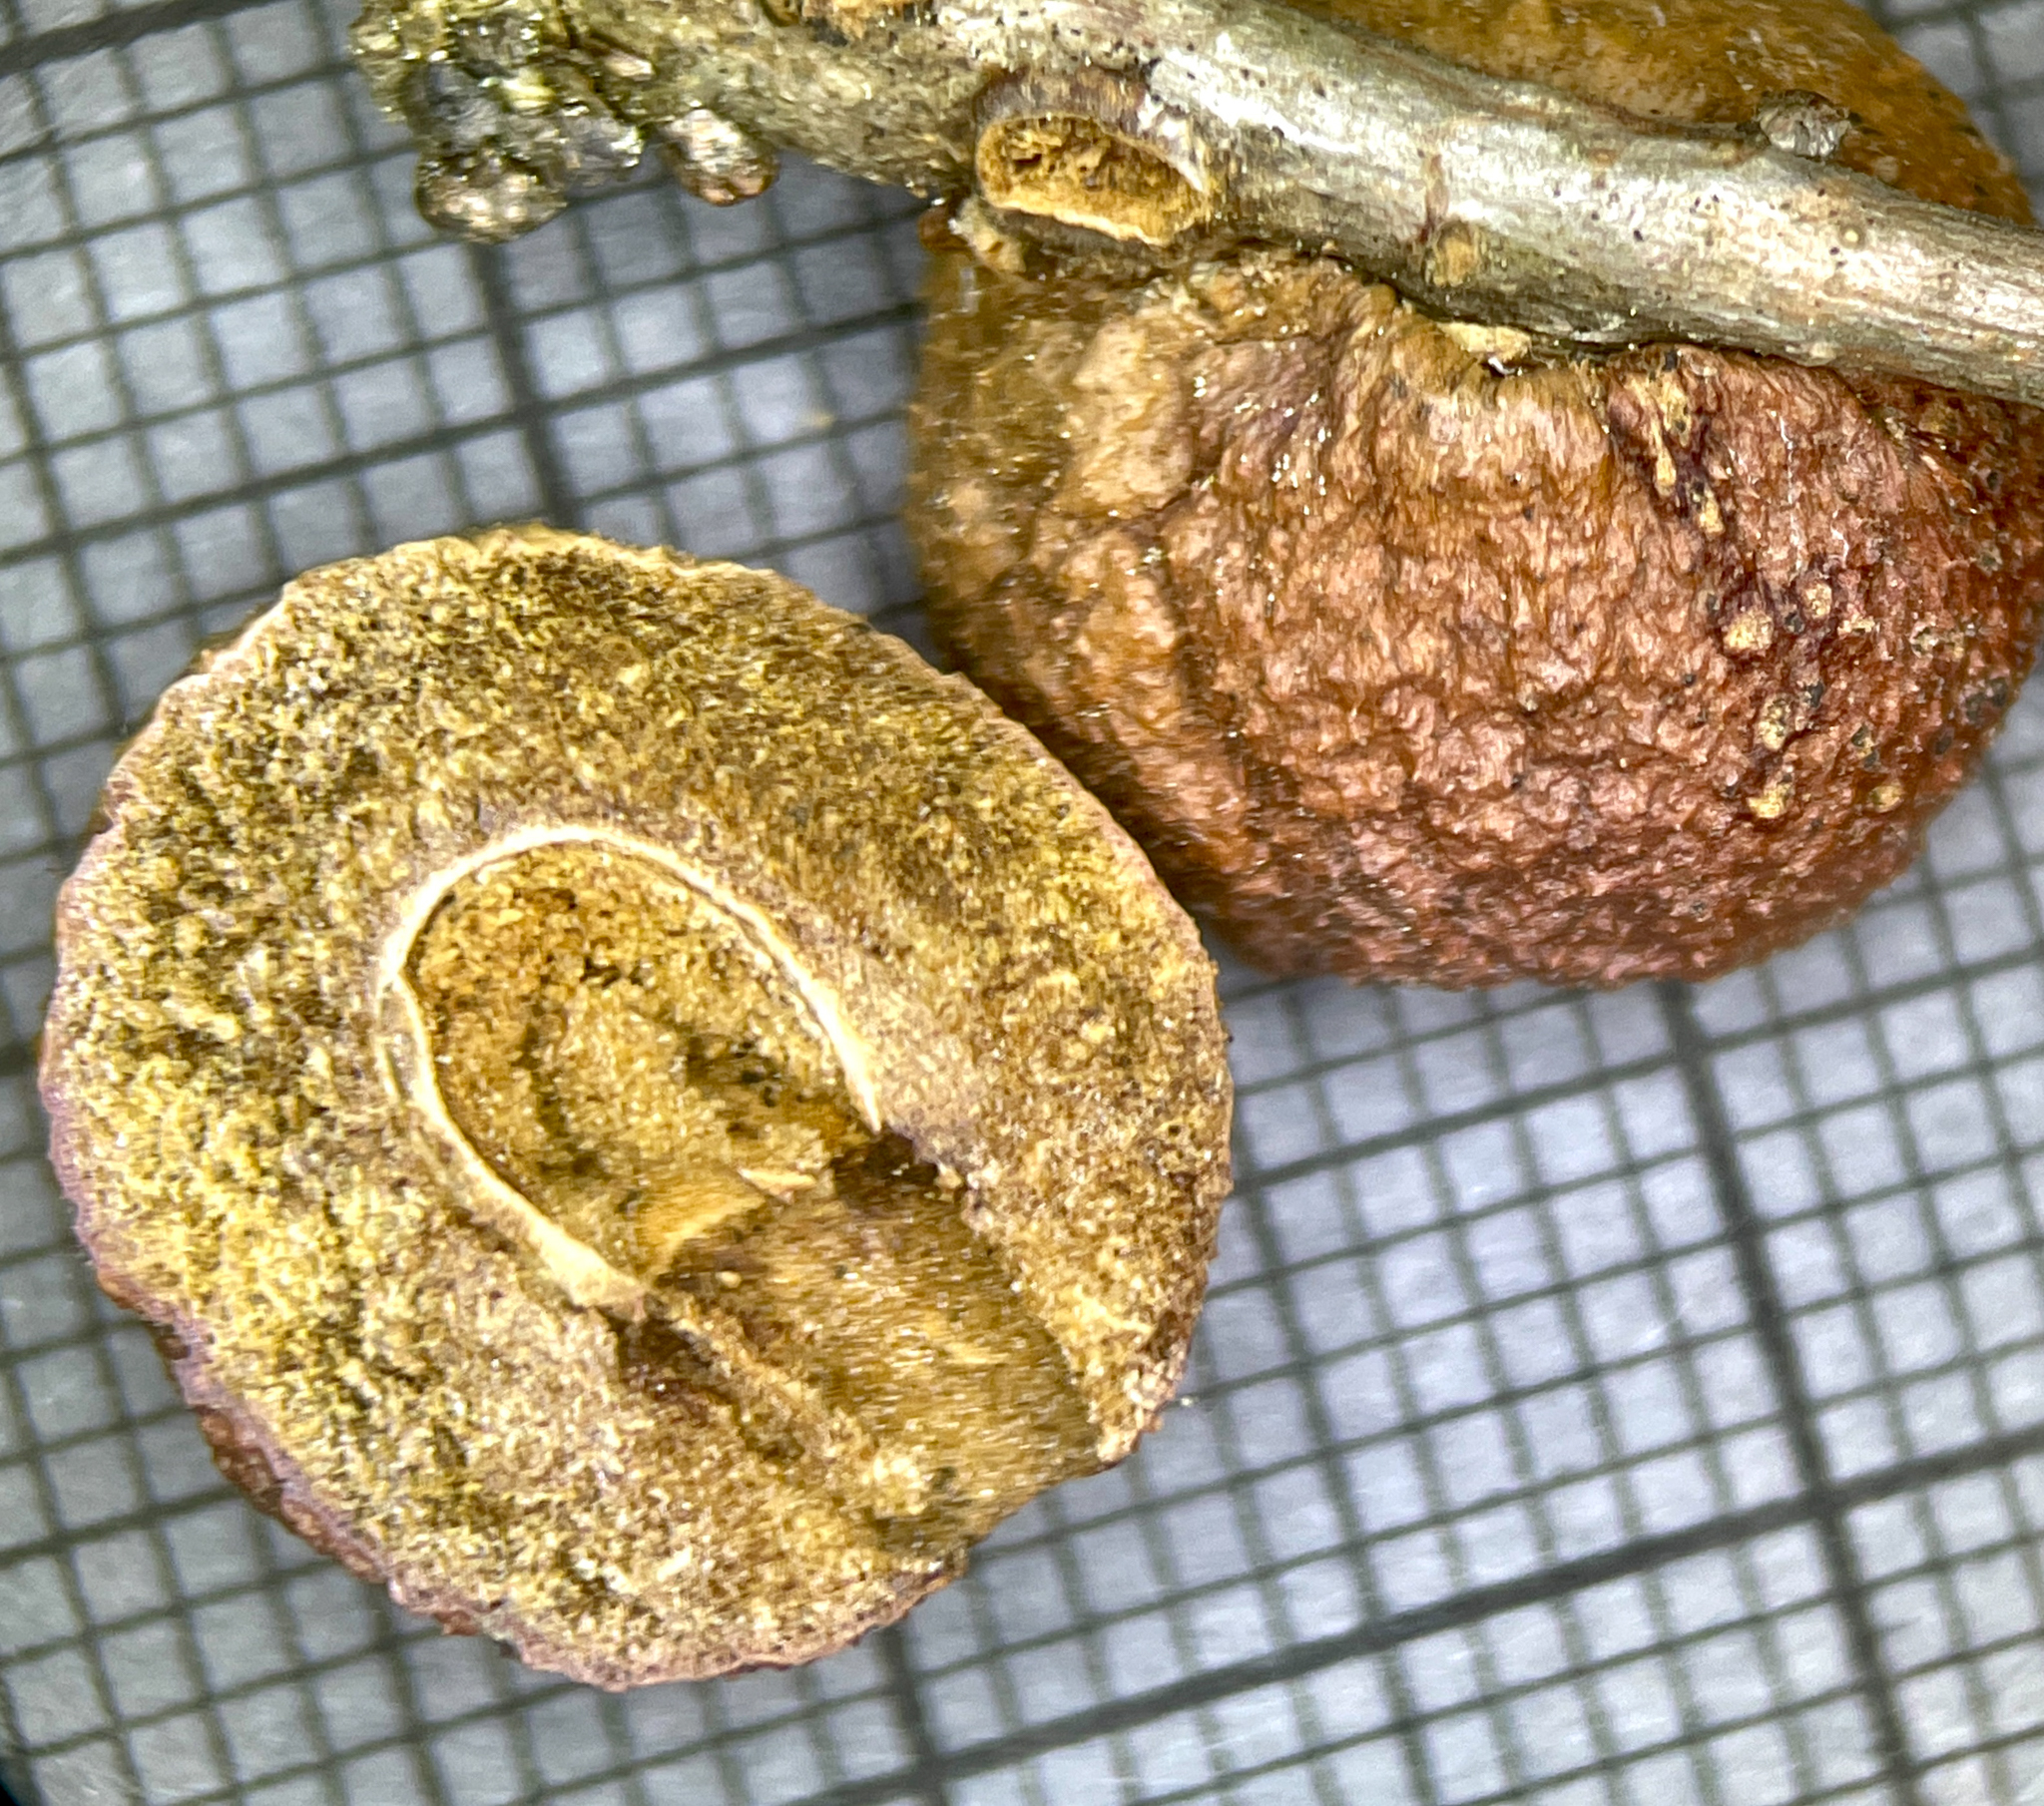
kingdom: Animalia
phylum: Arthropoda
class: Insecta
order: Hymenoptera
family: Cynipidae
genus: Disholcaspis
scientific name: Disholcaspis
